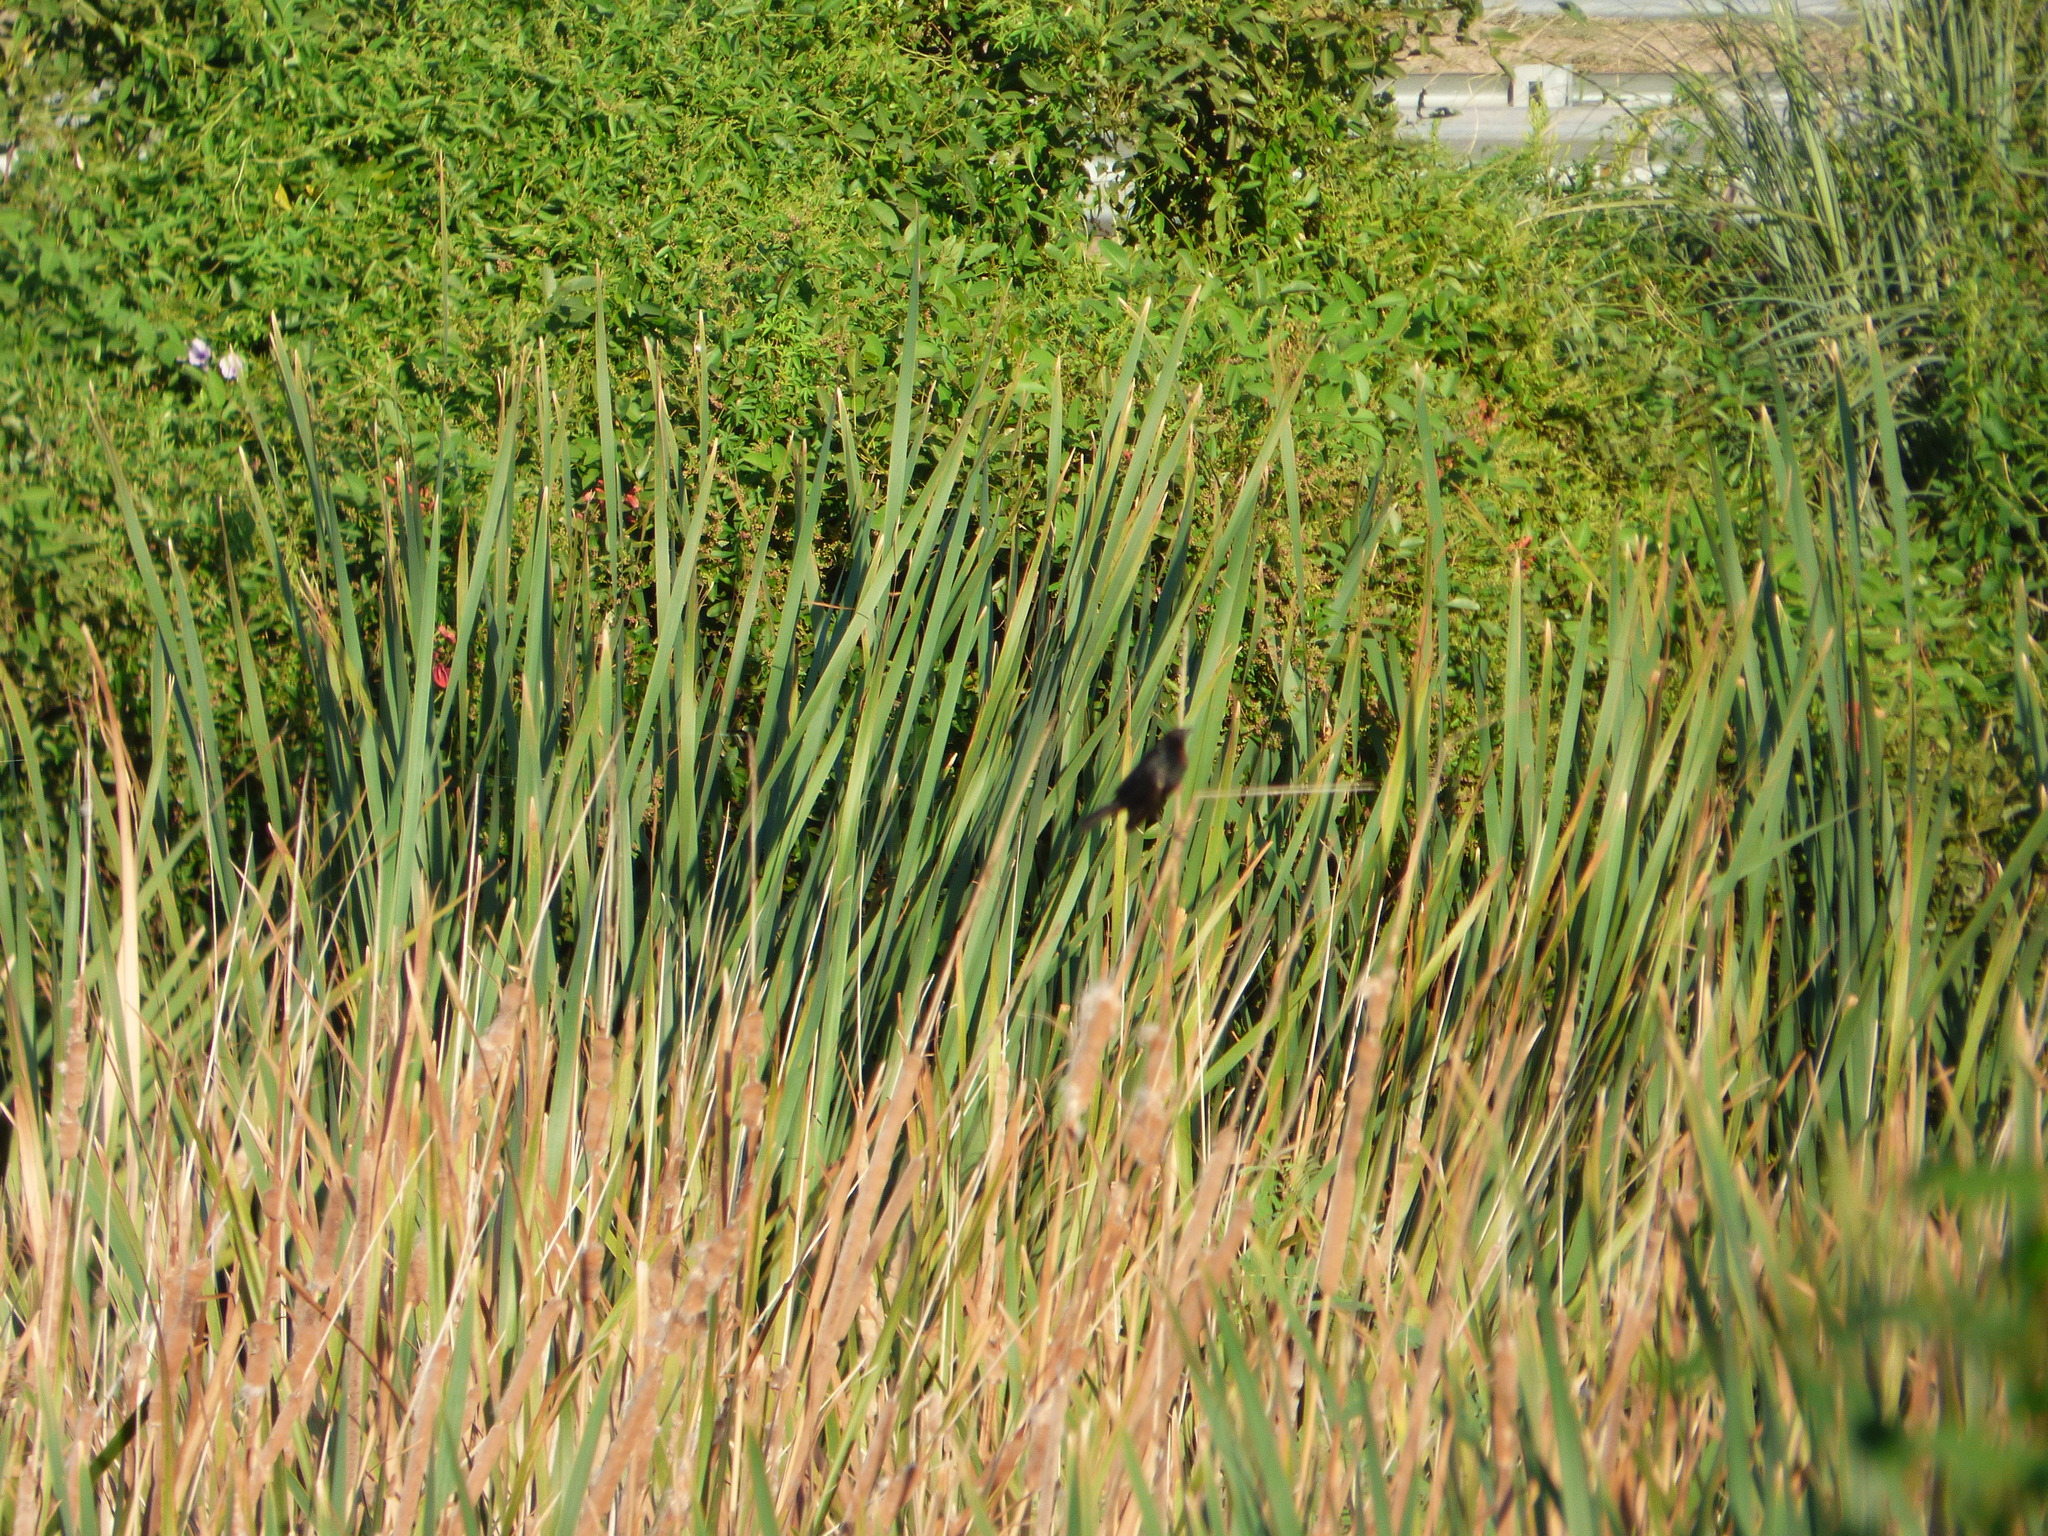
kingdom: Animalia
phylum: Chordata
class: Aves
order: Passeriformes
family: Icteridae
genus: Chrysomus
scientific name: Chrysomus ruficapillus
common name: Chestnut-capped blackbird
